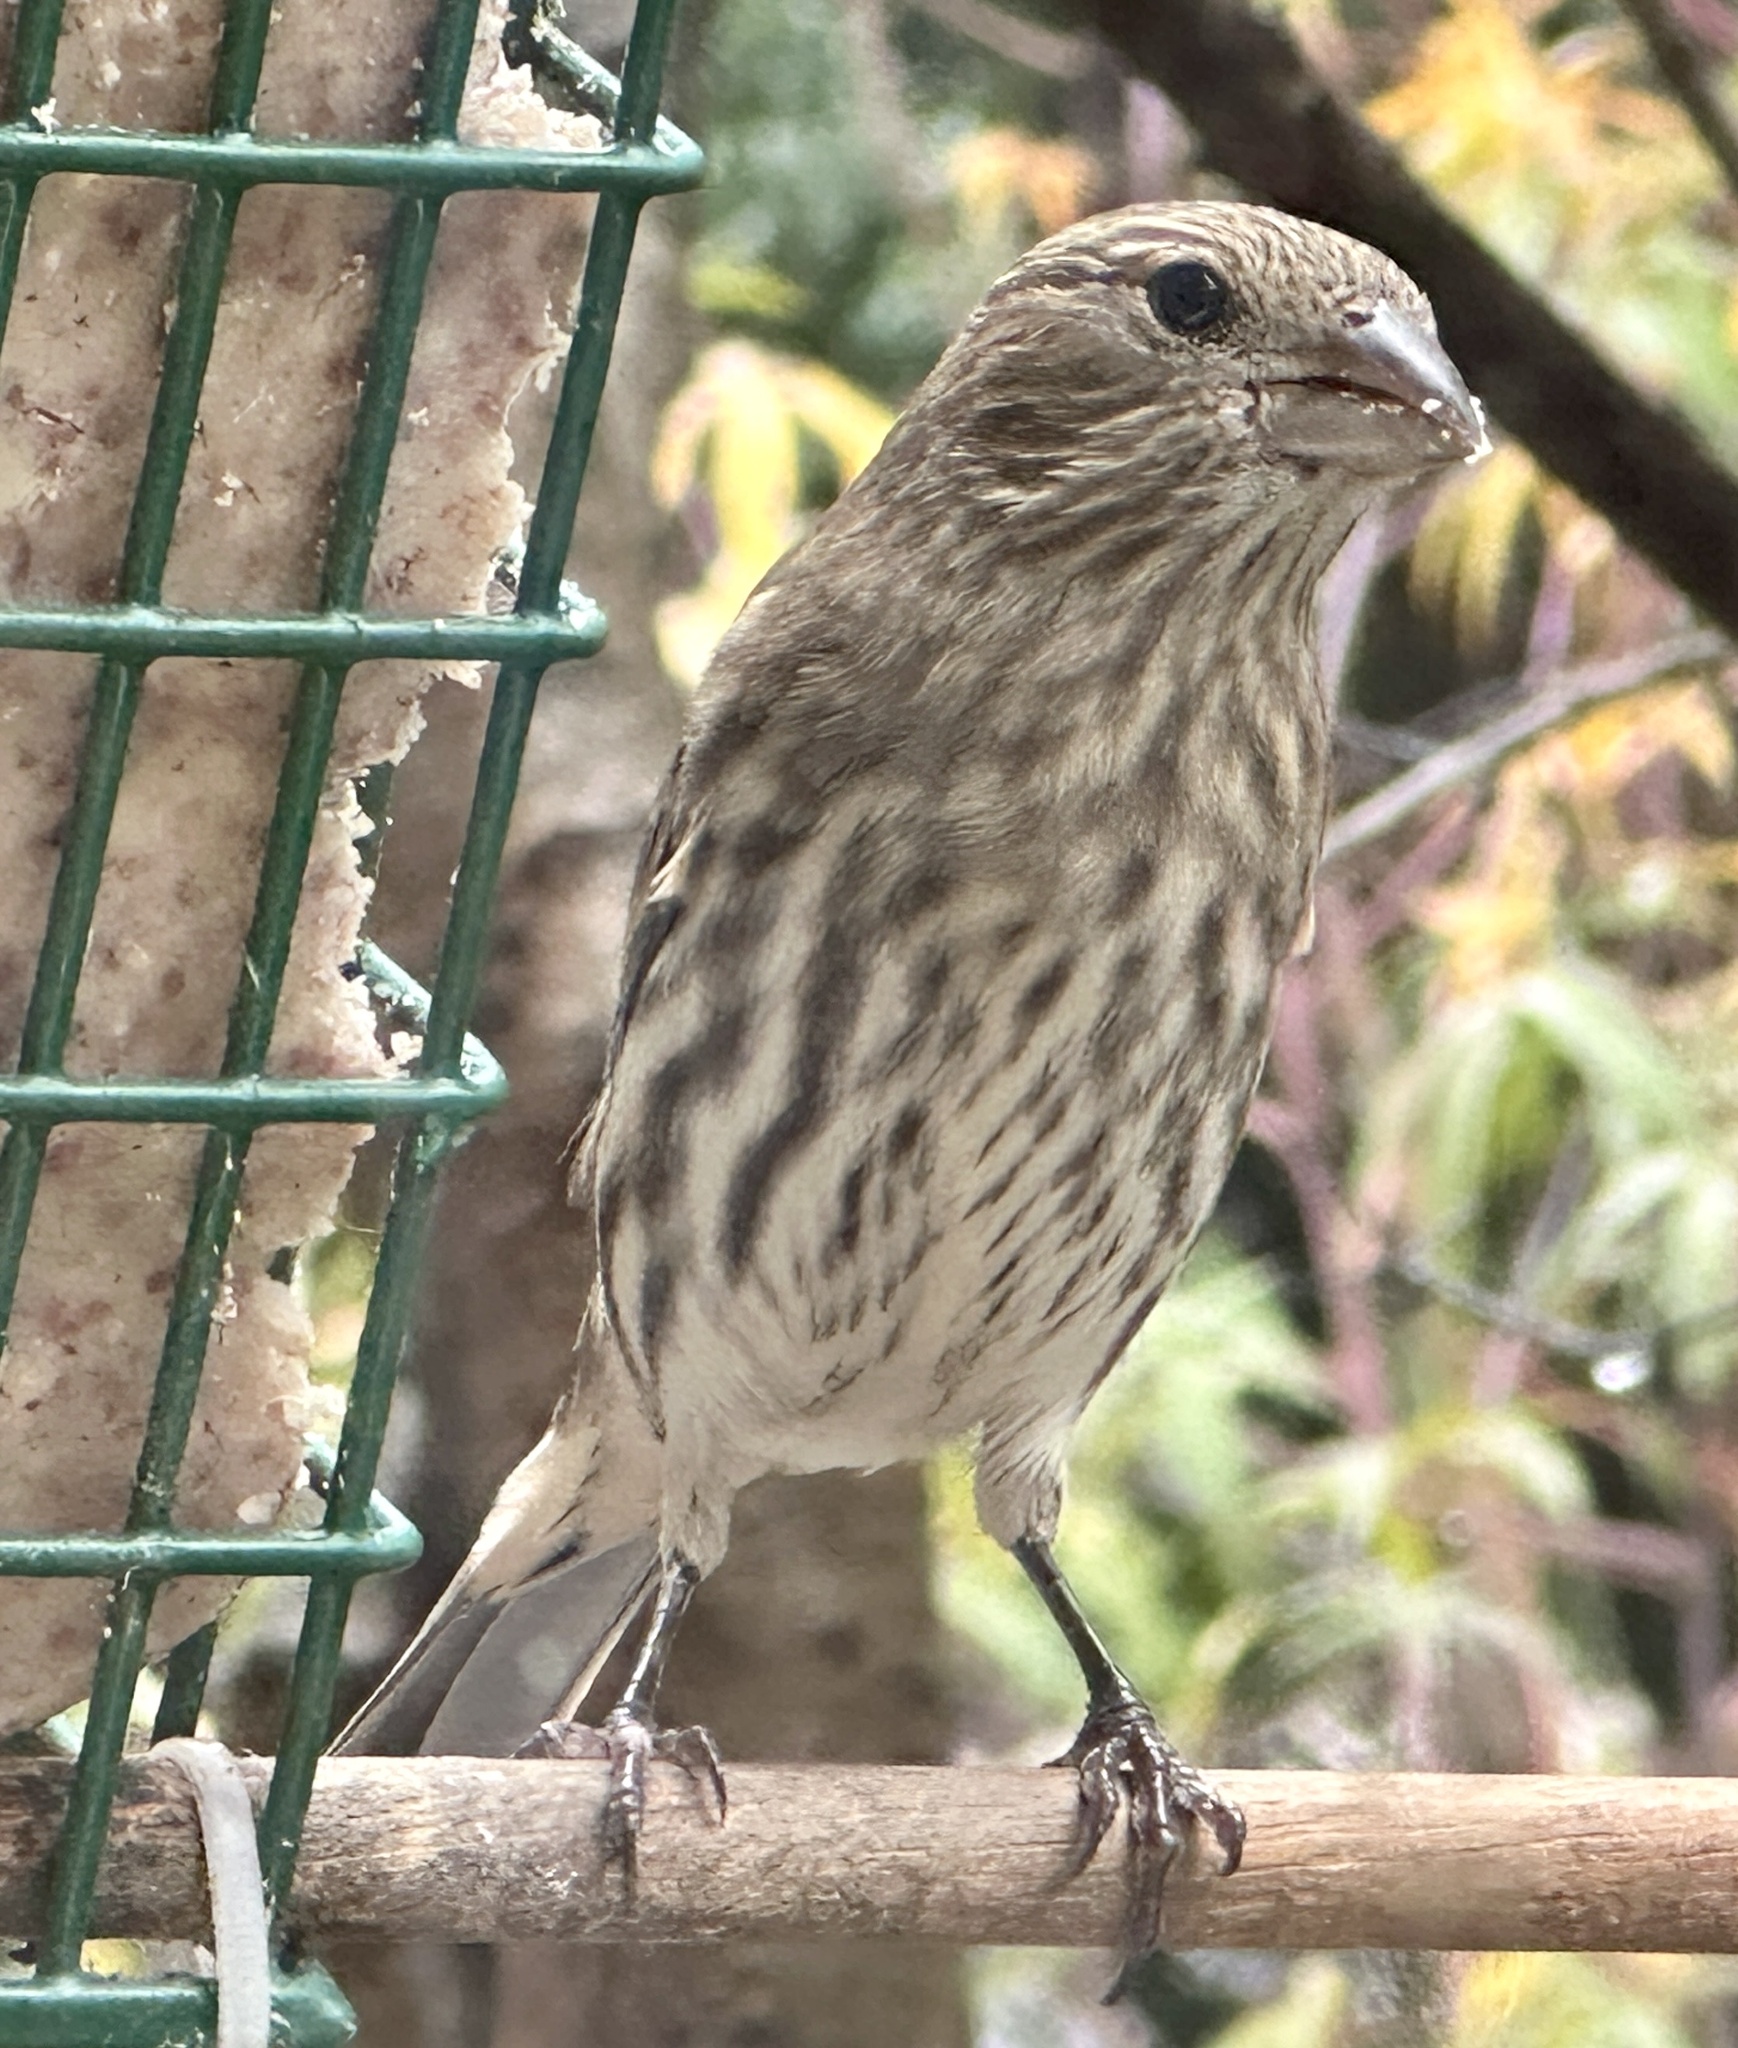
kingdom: Animalia
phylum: Chordata
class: Aves
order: Passeriformes
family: Fringillidae
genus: Haemorhous
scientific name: Haemorhous mexicanus
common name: House finch
